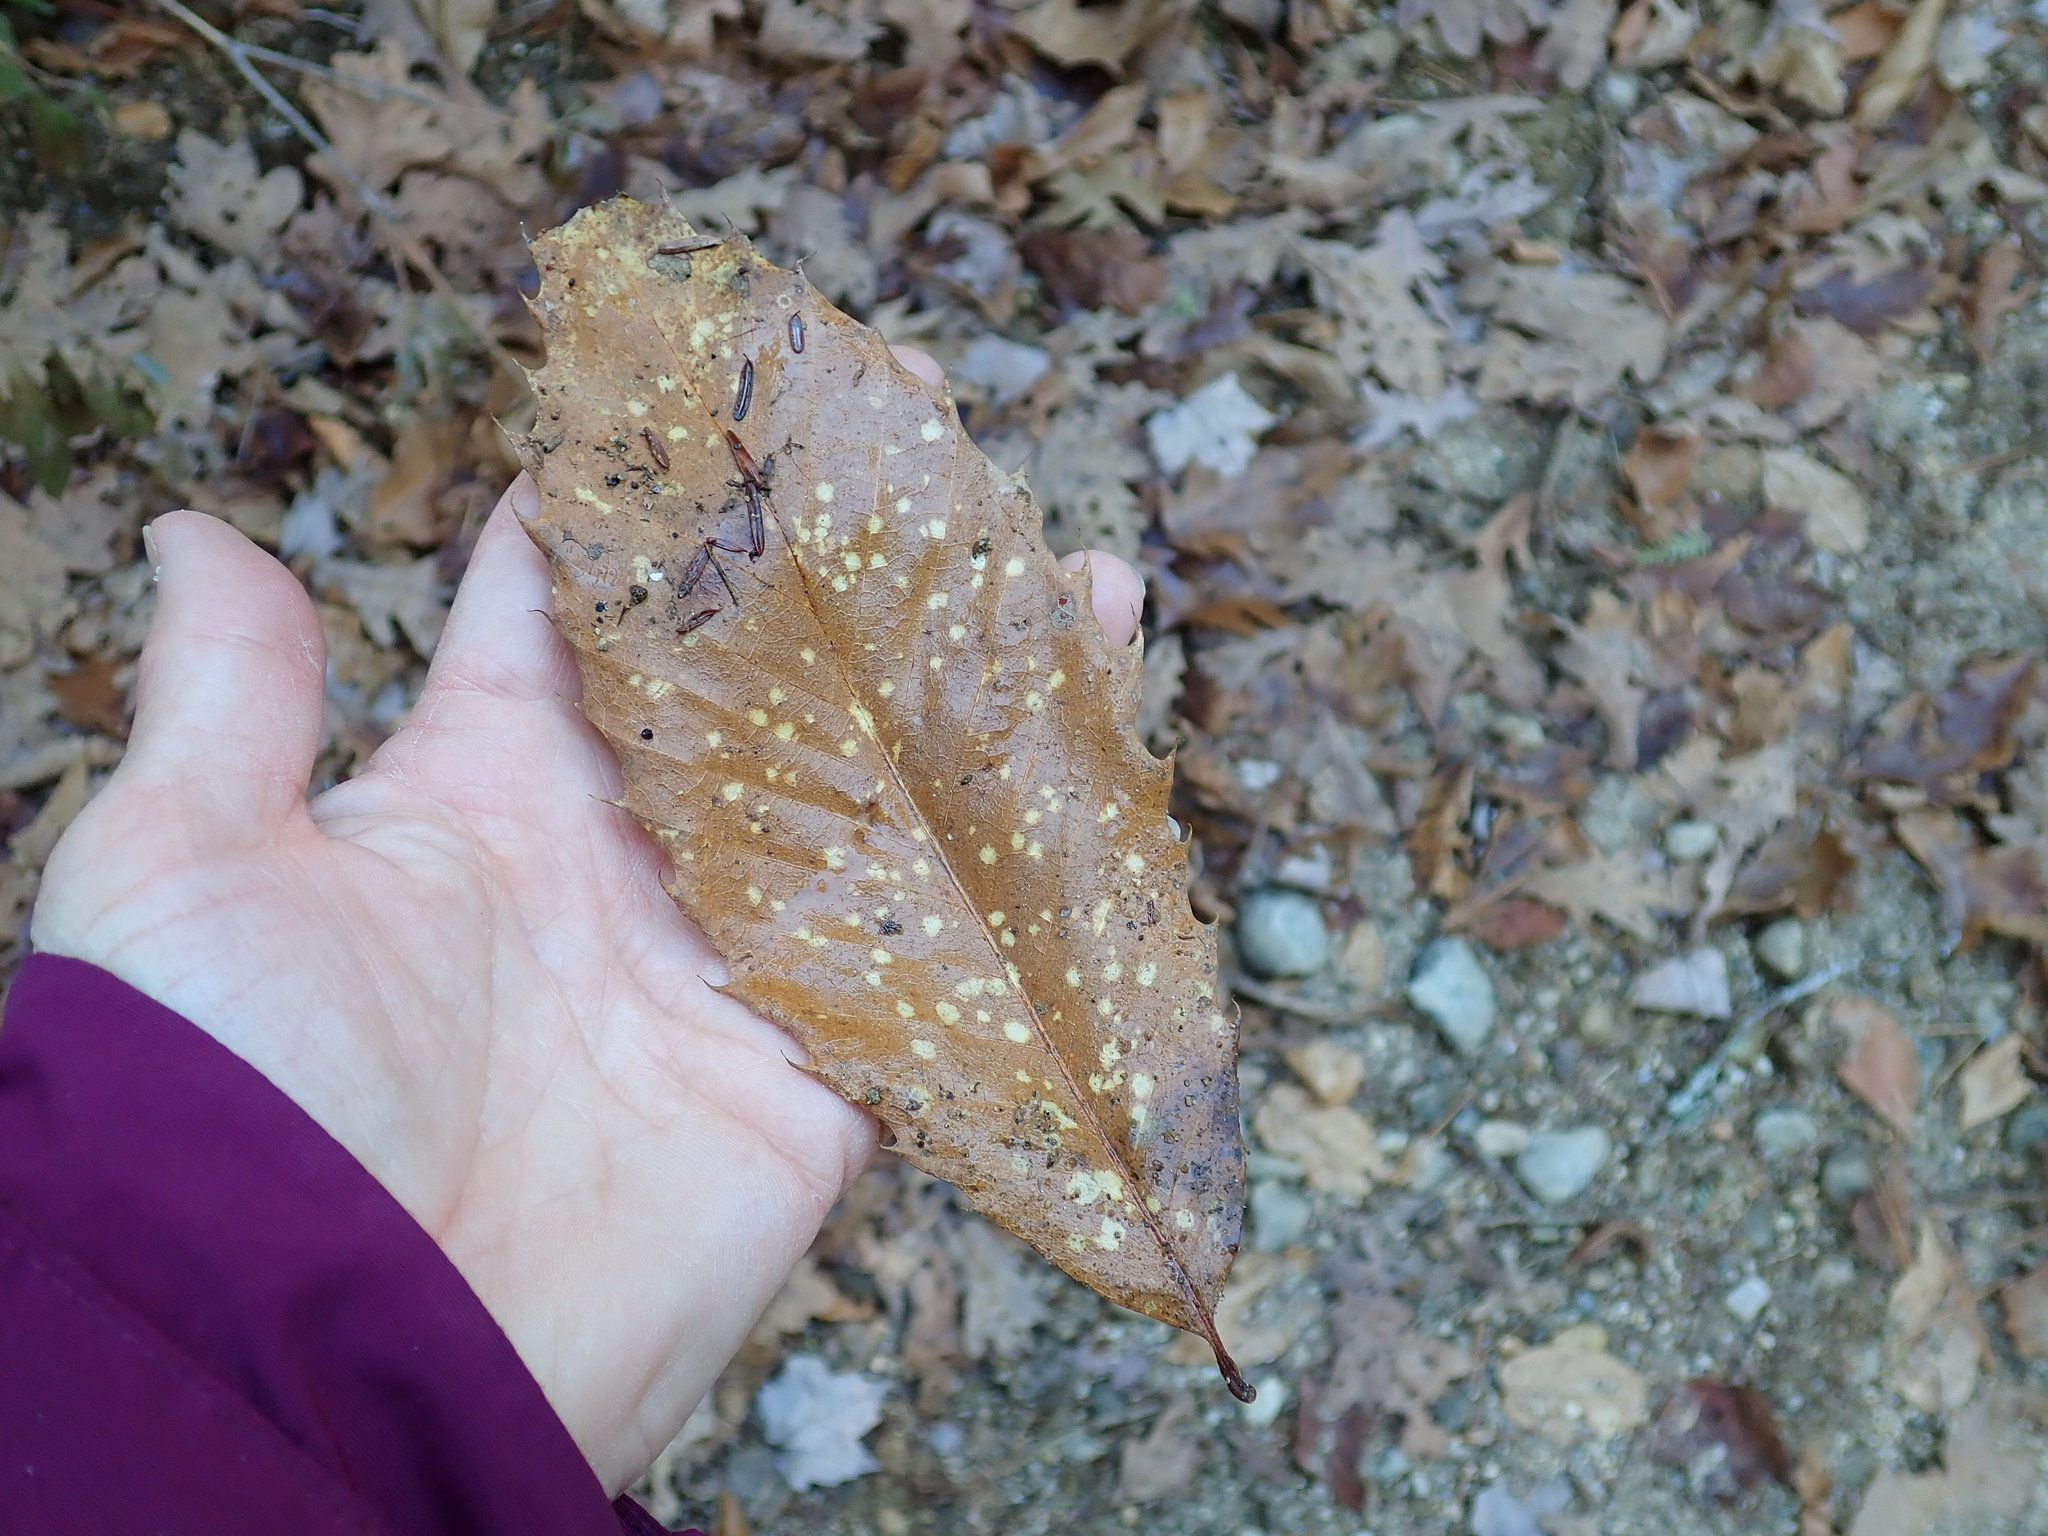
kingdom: Plantae
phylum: Tracheophyta
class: Magnoliopsida
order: Fagales
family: Fagaceae
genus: Castanea
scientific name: Castanea dentata
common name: American chestnut
